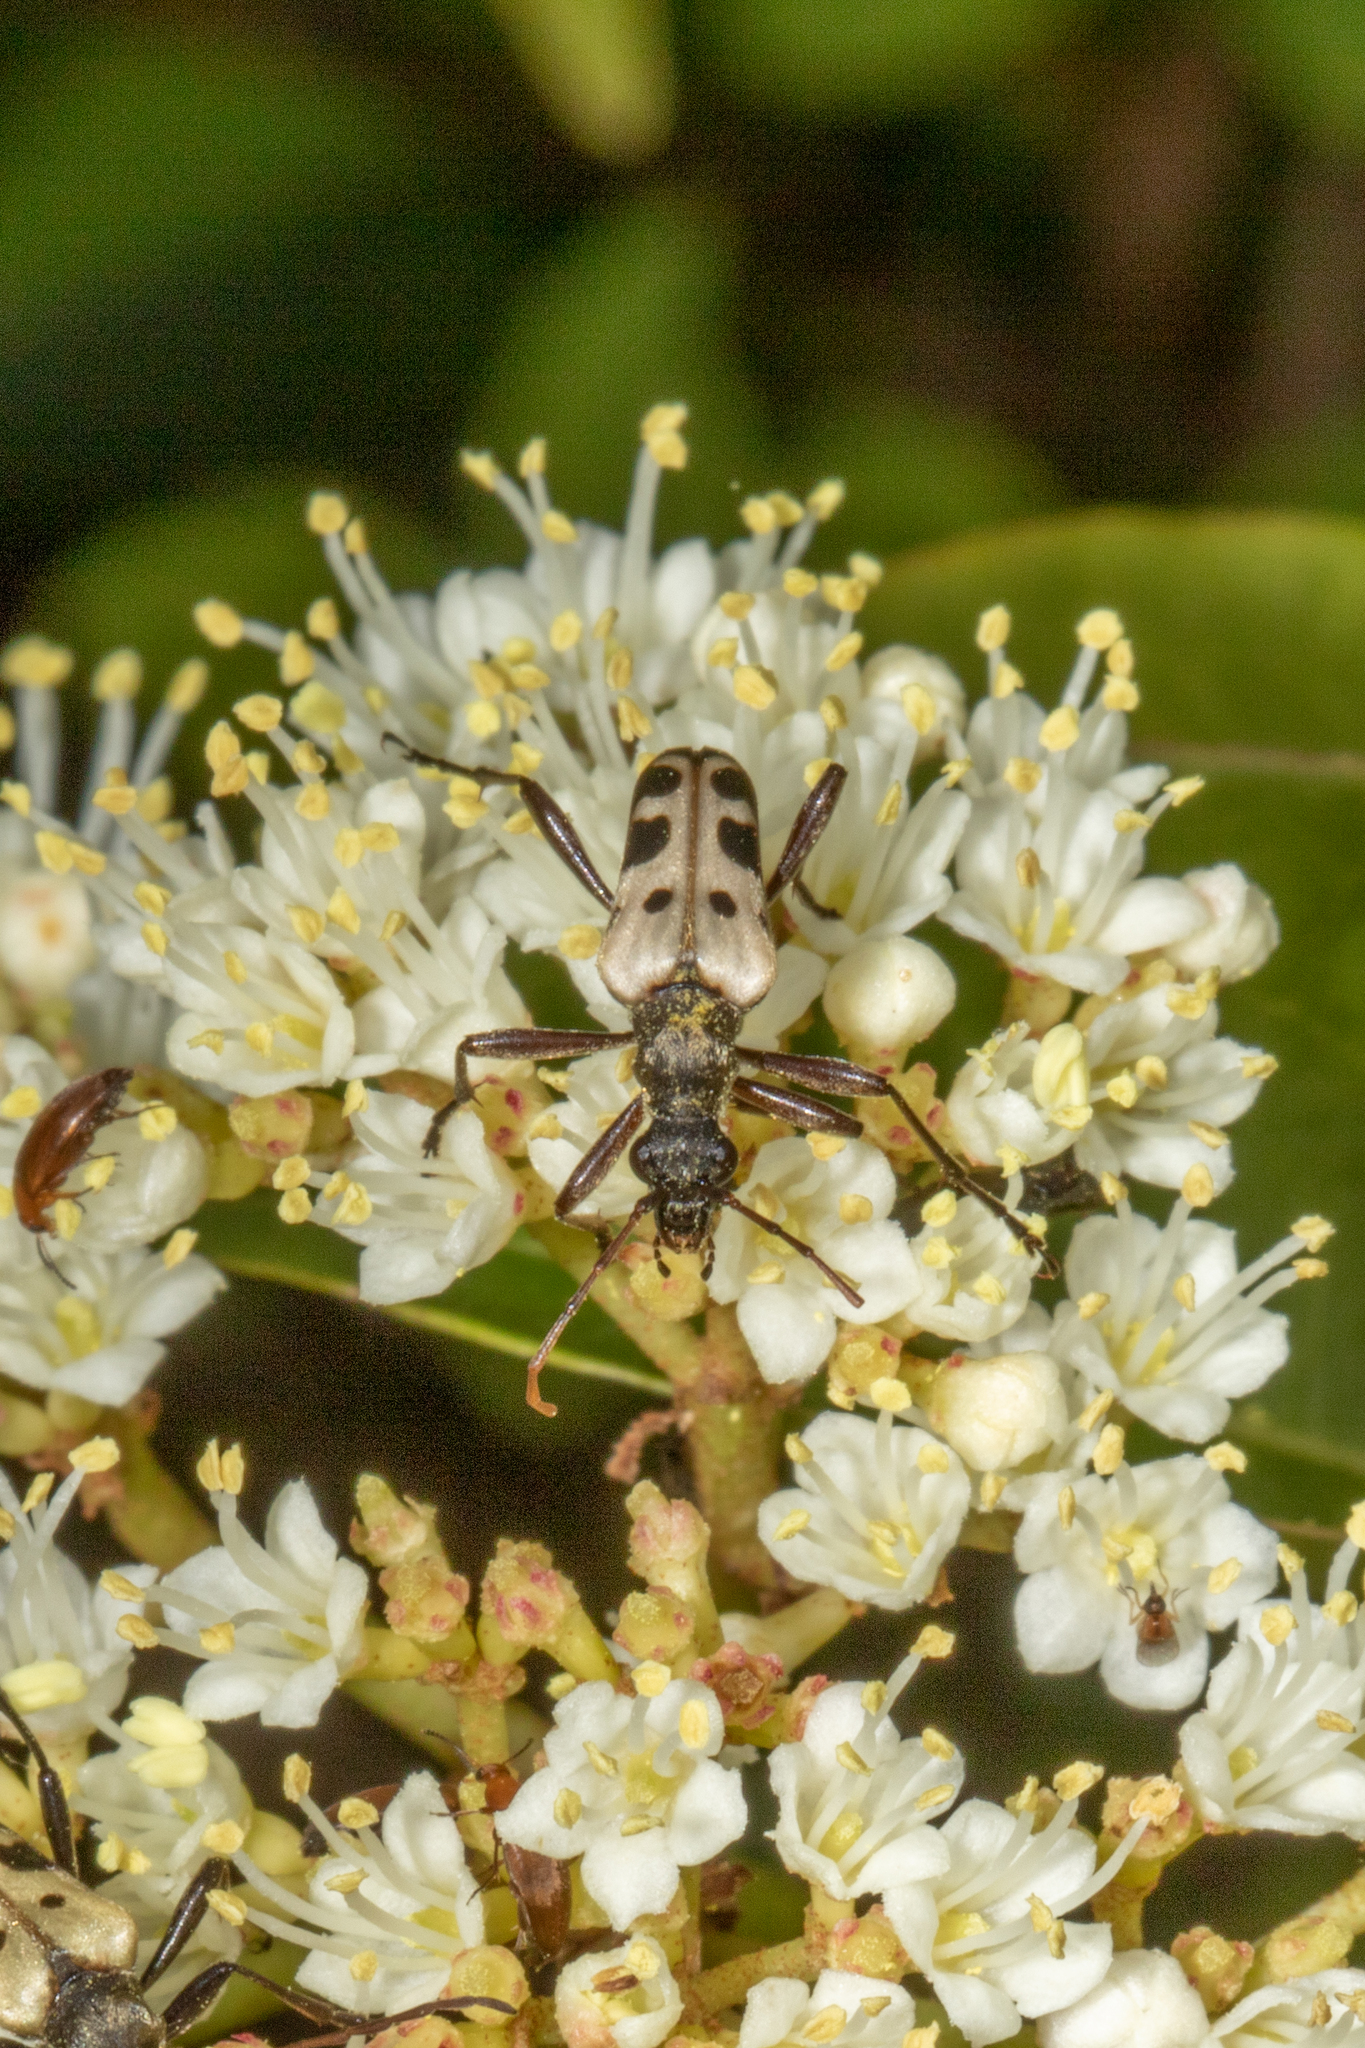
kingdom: Animalia
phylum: Arthropoda
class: Insecta
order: Coleoptera
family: Cerambycidae
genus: Evodinus
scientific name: Evodinus monticola
